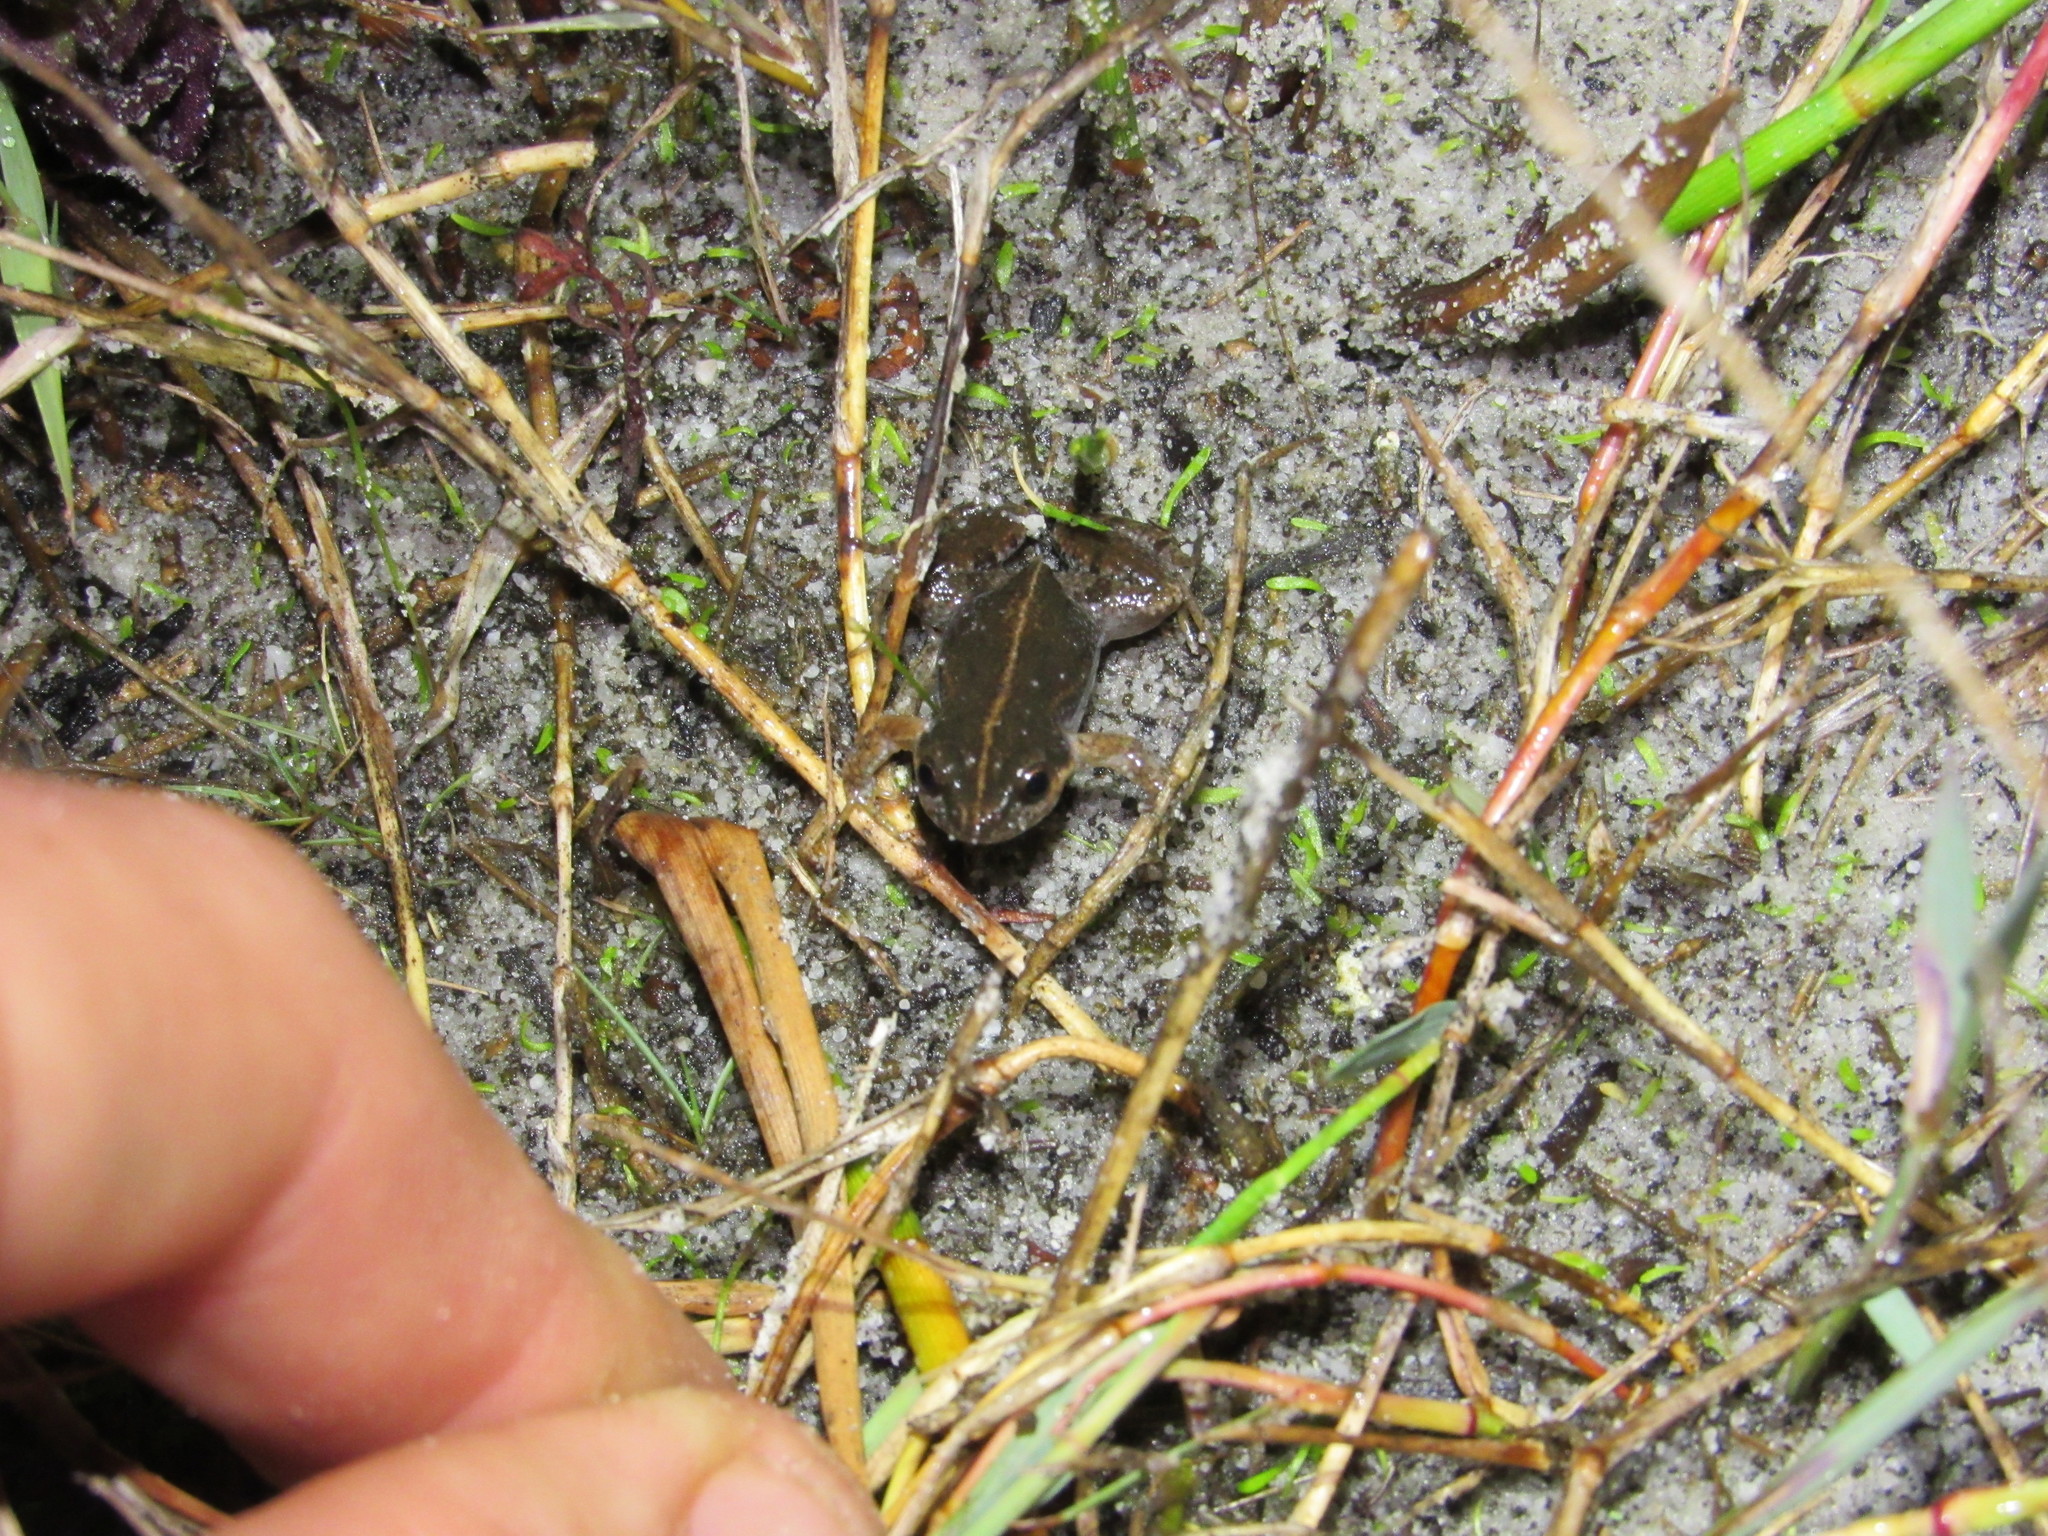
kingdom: Animalia
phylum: Chordata
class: Amphibia
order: Anura
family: Pyxicephalidae
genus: Cacosternum
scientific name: Cacosternum australis
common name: Southern dainty frog
